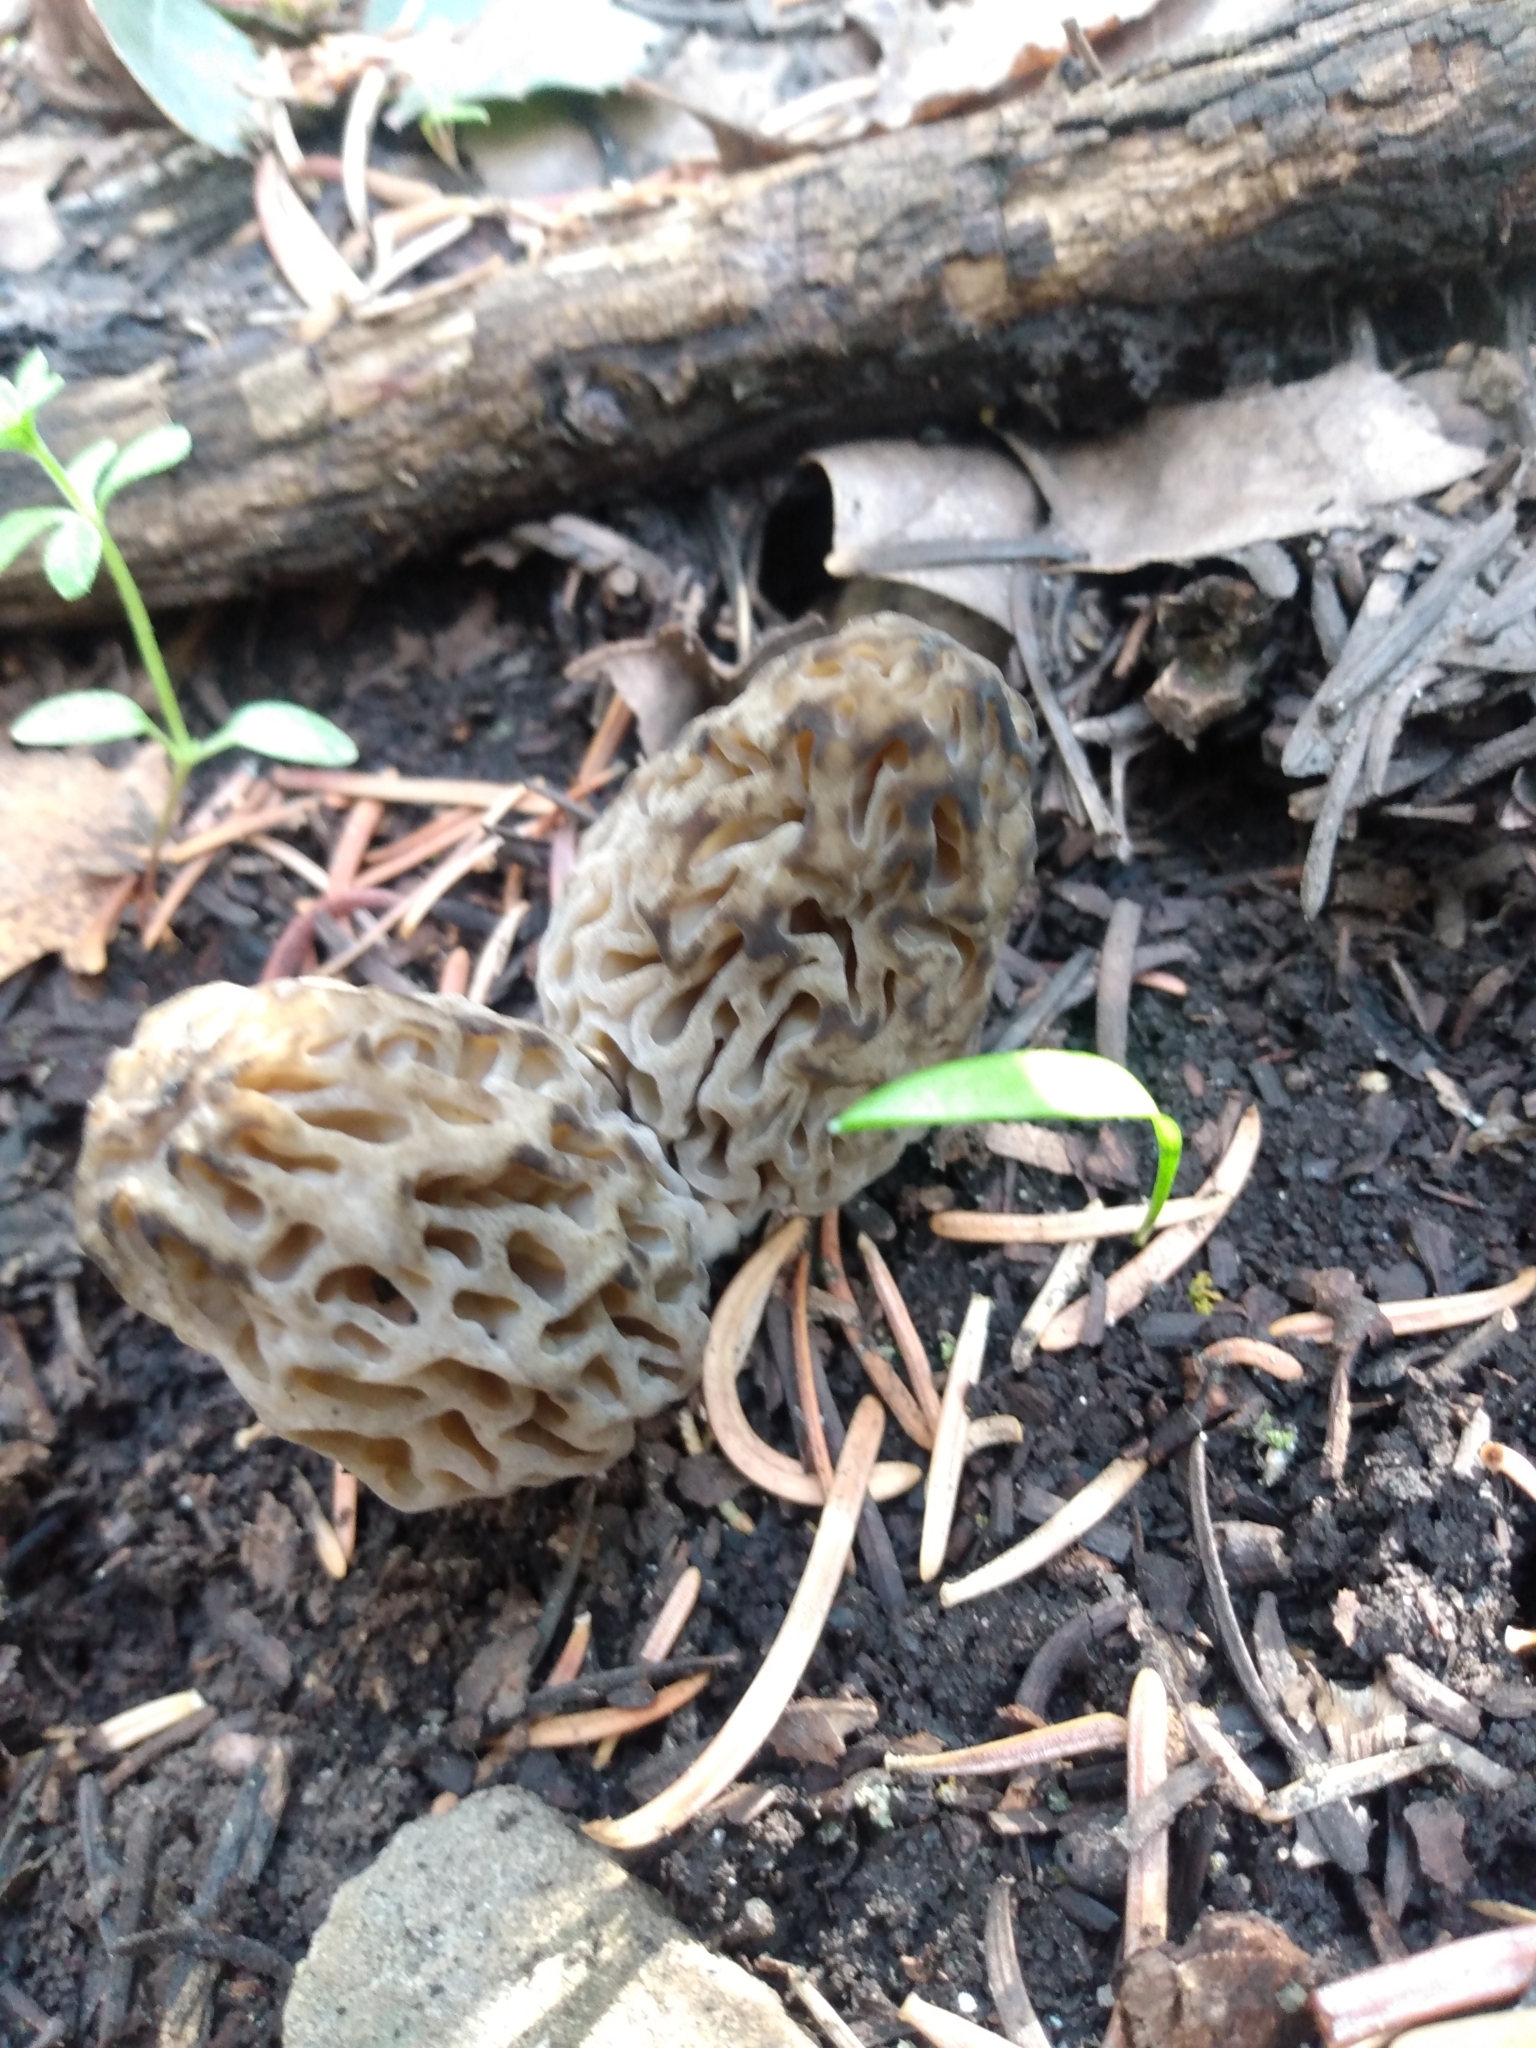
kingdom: Fungi
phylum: Ascomycota
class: Pezizomycetes
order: Pezizales
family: Morchellaceae
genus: Morchella
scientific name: Morchella snyderi
